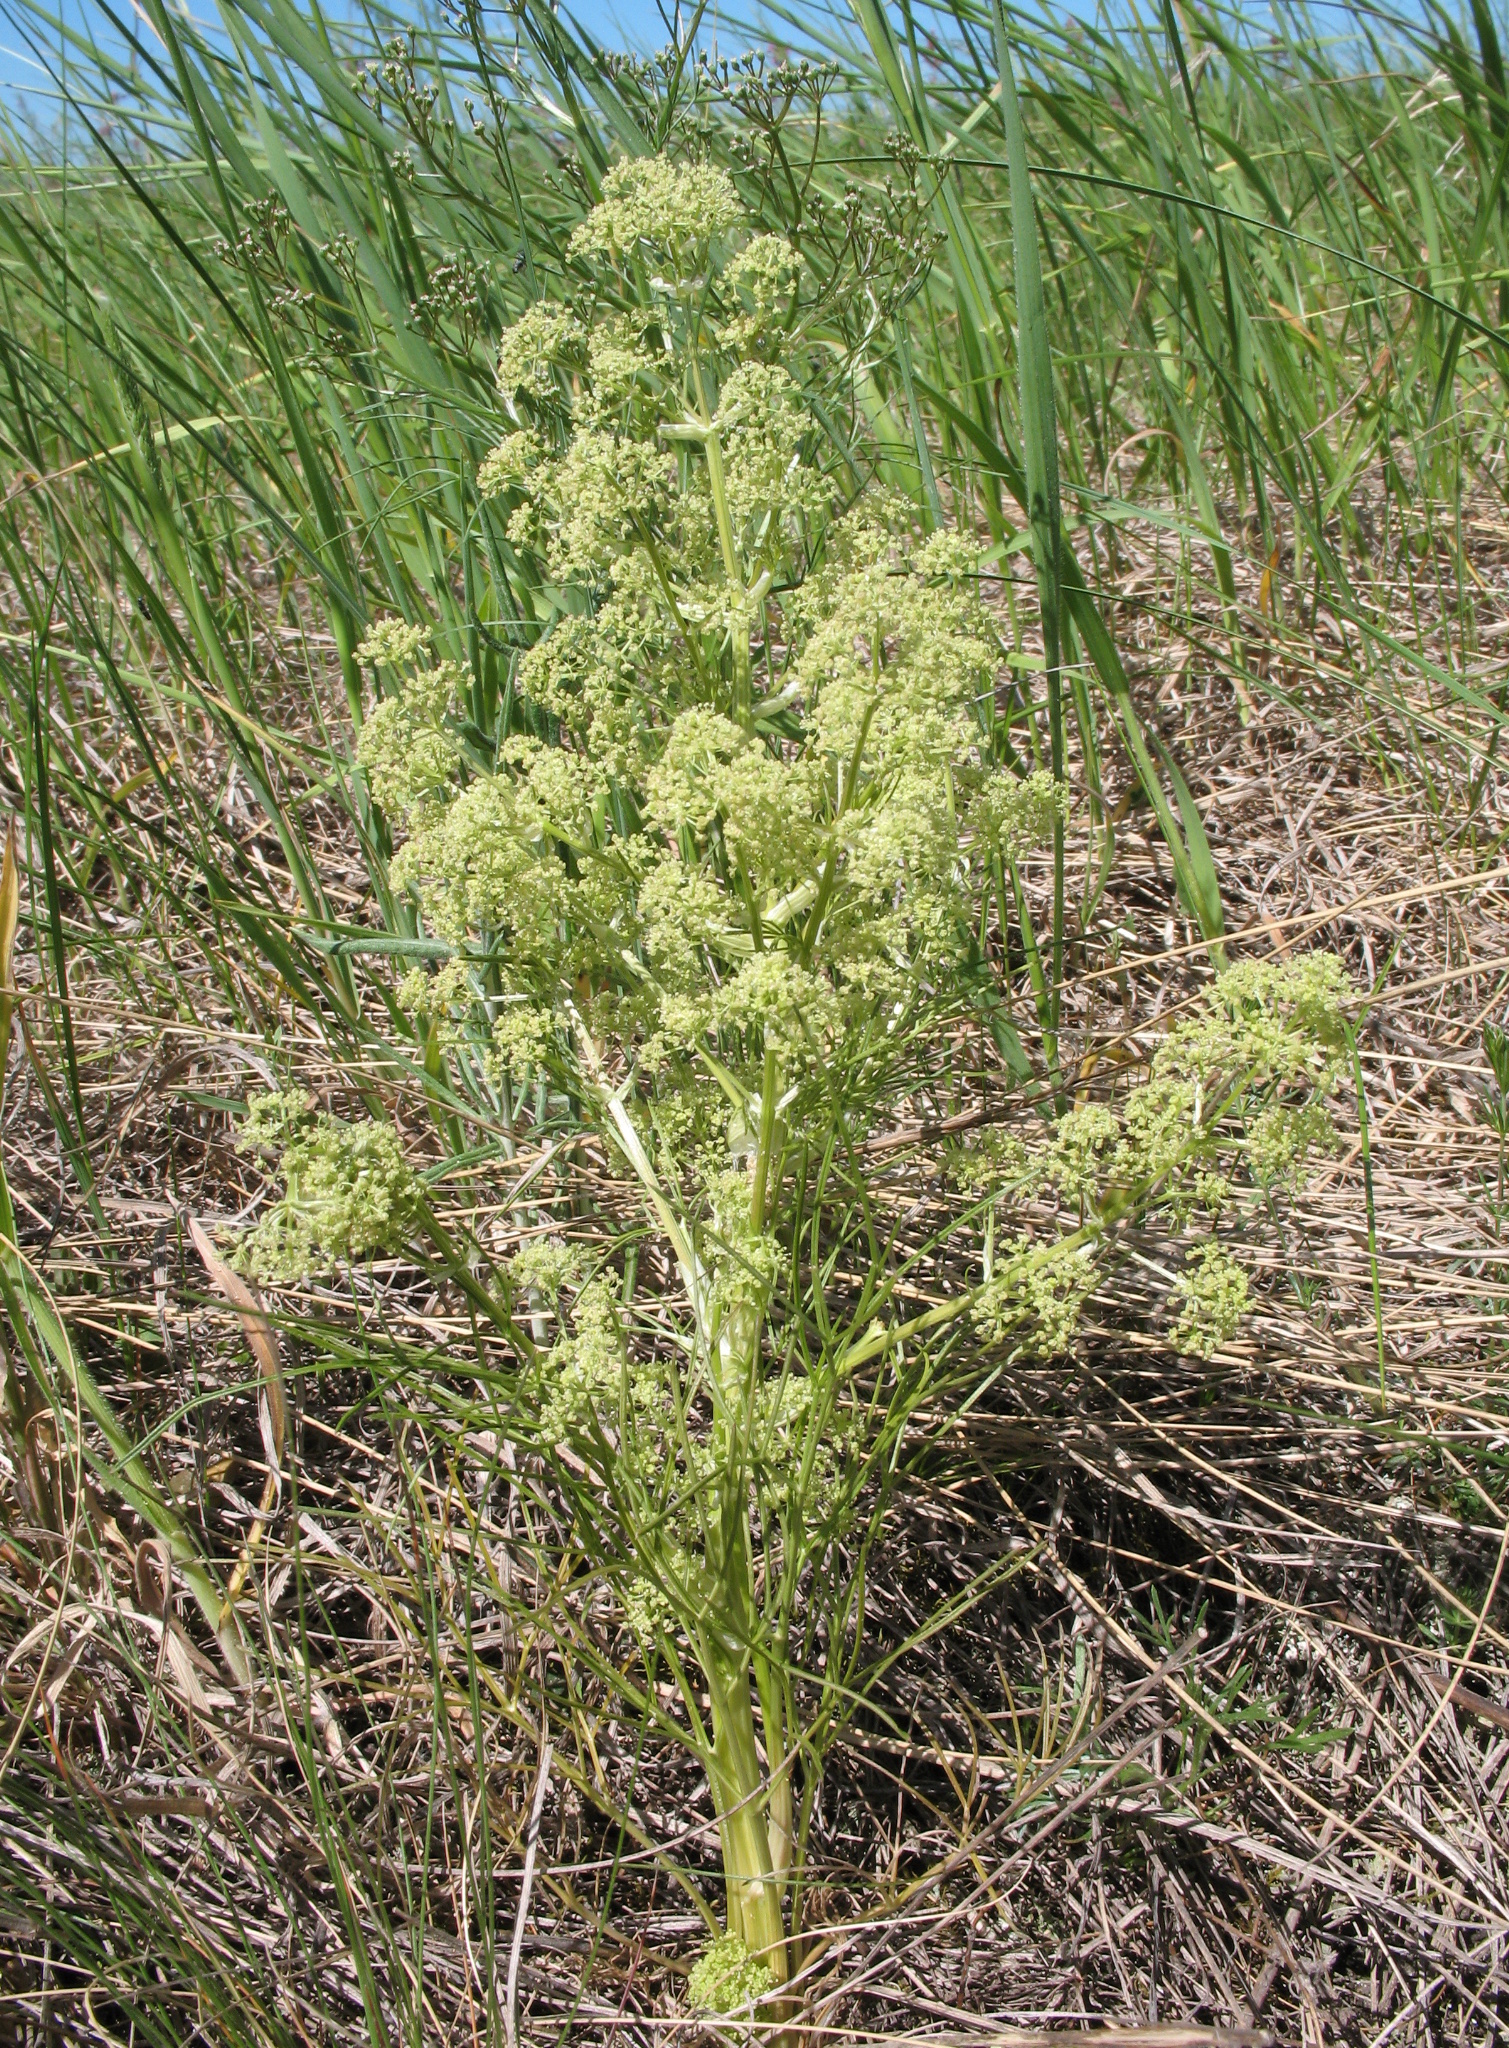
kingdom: Plantae
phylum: Tracheophyta
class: Magnoliopsida
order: Apiales
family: Apiaceae
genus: Trinia
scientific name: Trinia multicaulis
